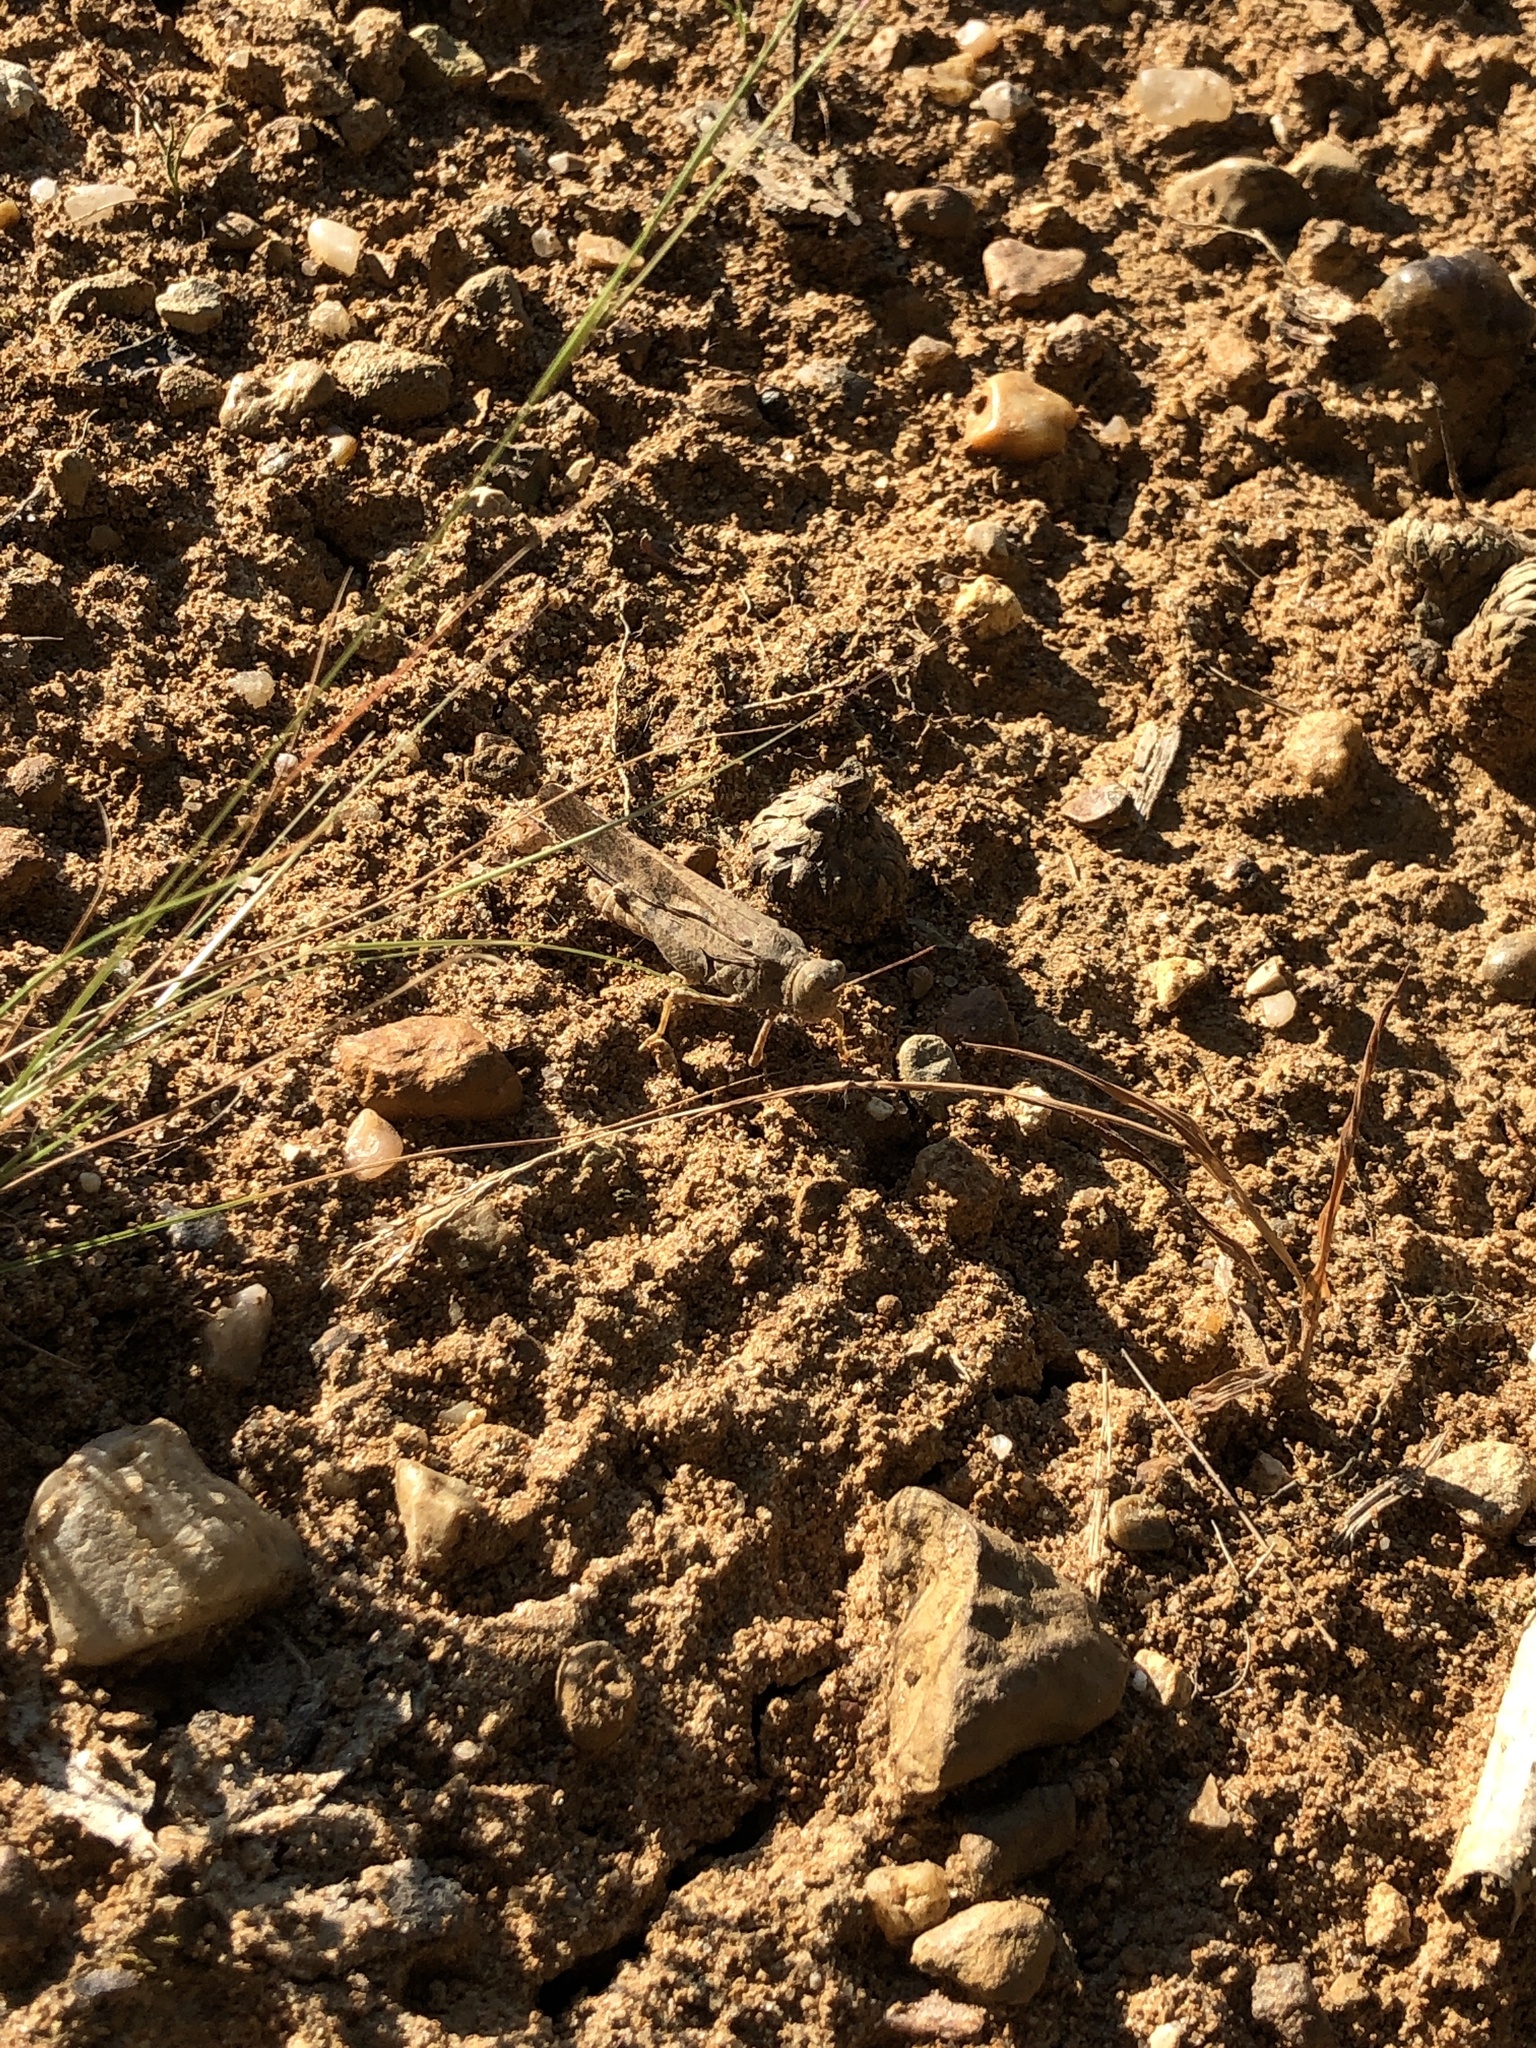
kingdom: Animalia
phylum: Arthropoda
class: Insecta
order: Orthoptera
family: Acrididae
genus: Dissosteira
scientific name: Dissosteira carolina
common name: Carolina grasshopper
